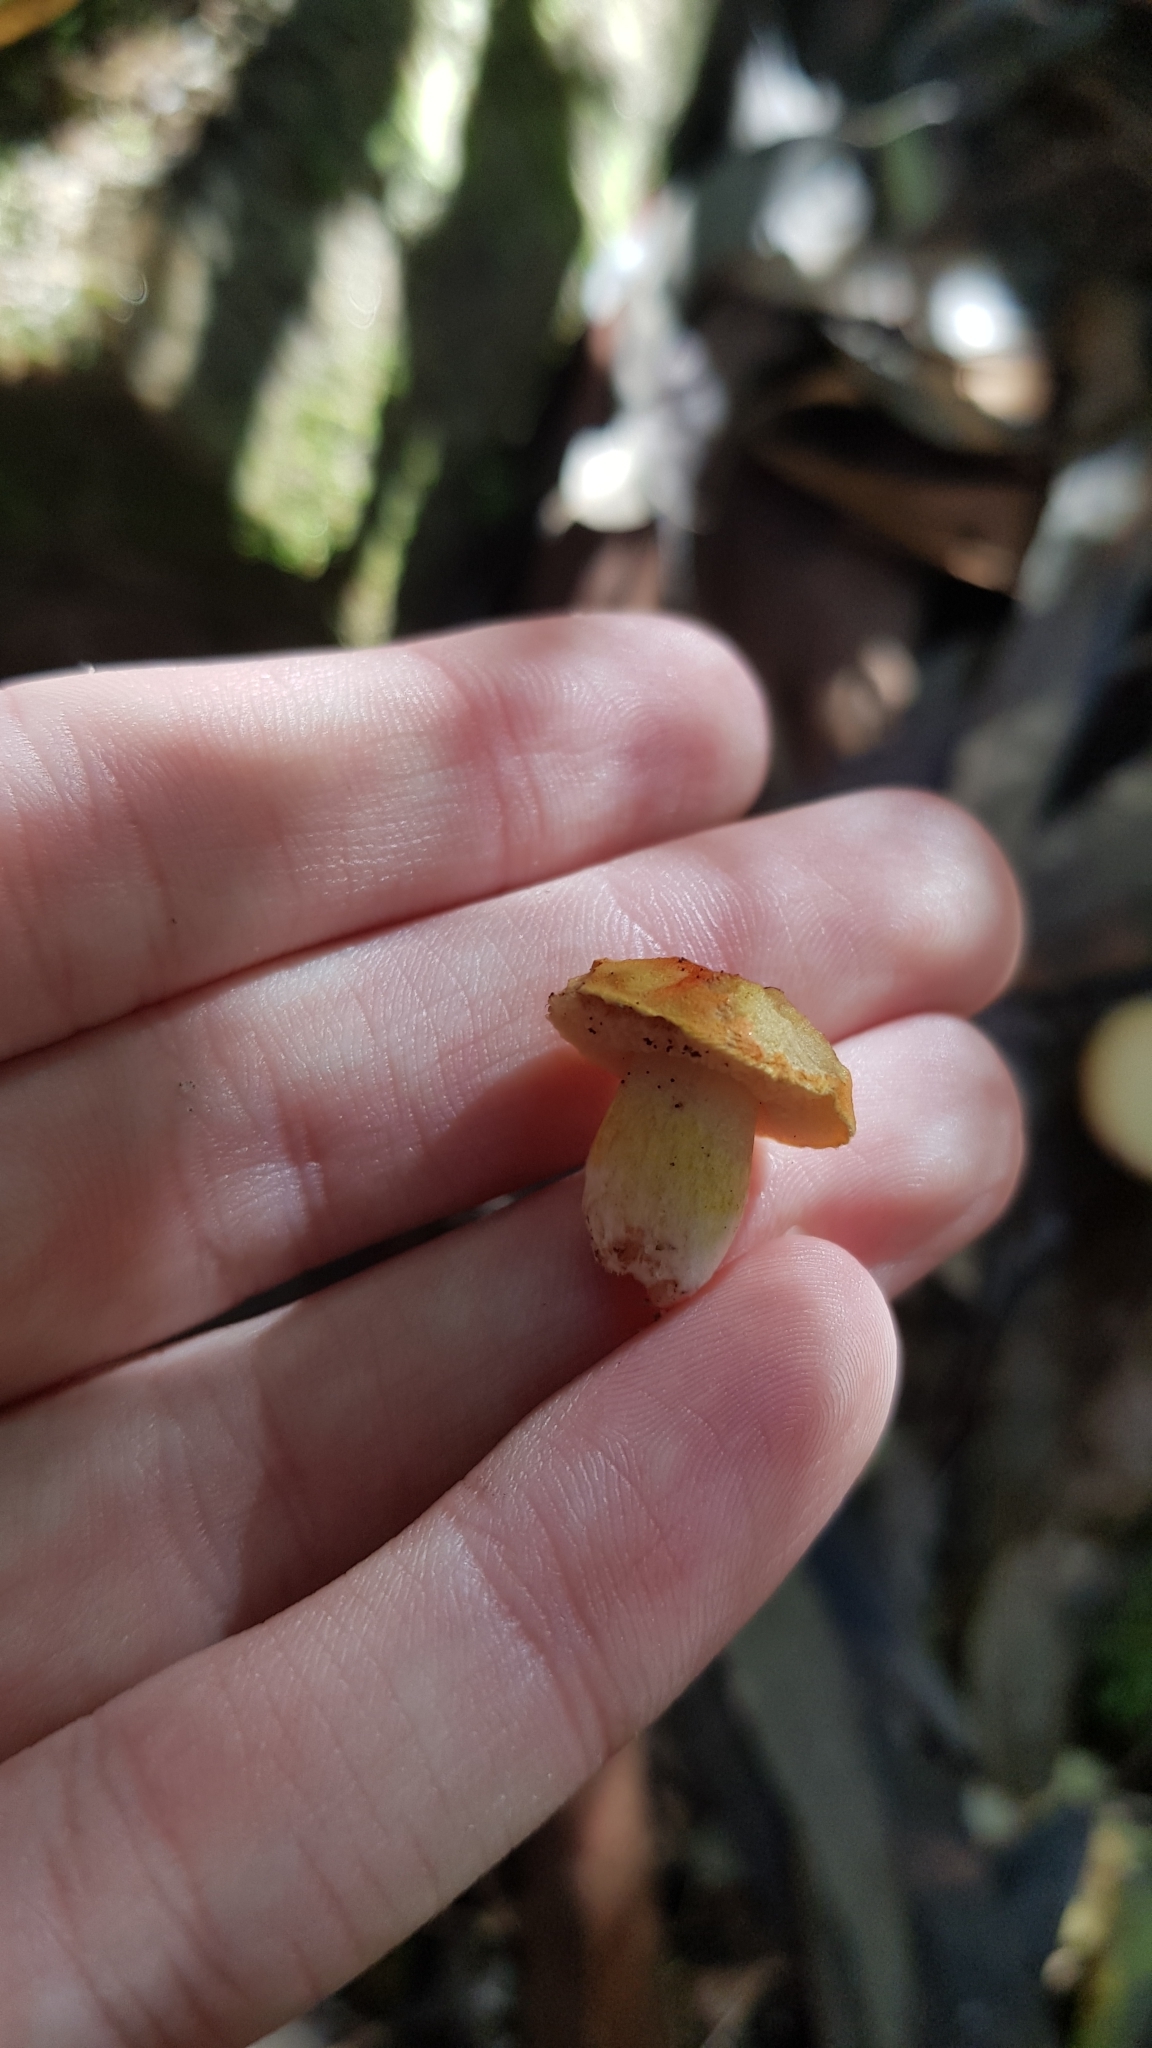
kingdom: Fungi
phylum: Basidiomycota
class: Agaricomycetes
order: Boletales
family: Boletaceae
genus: Tylopilus
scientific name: Tylopilus balloui
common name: Burnt-orange bolete
